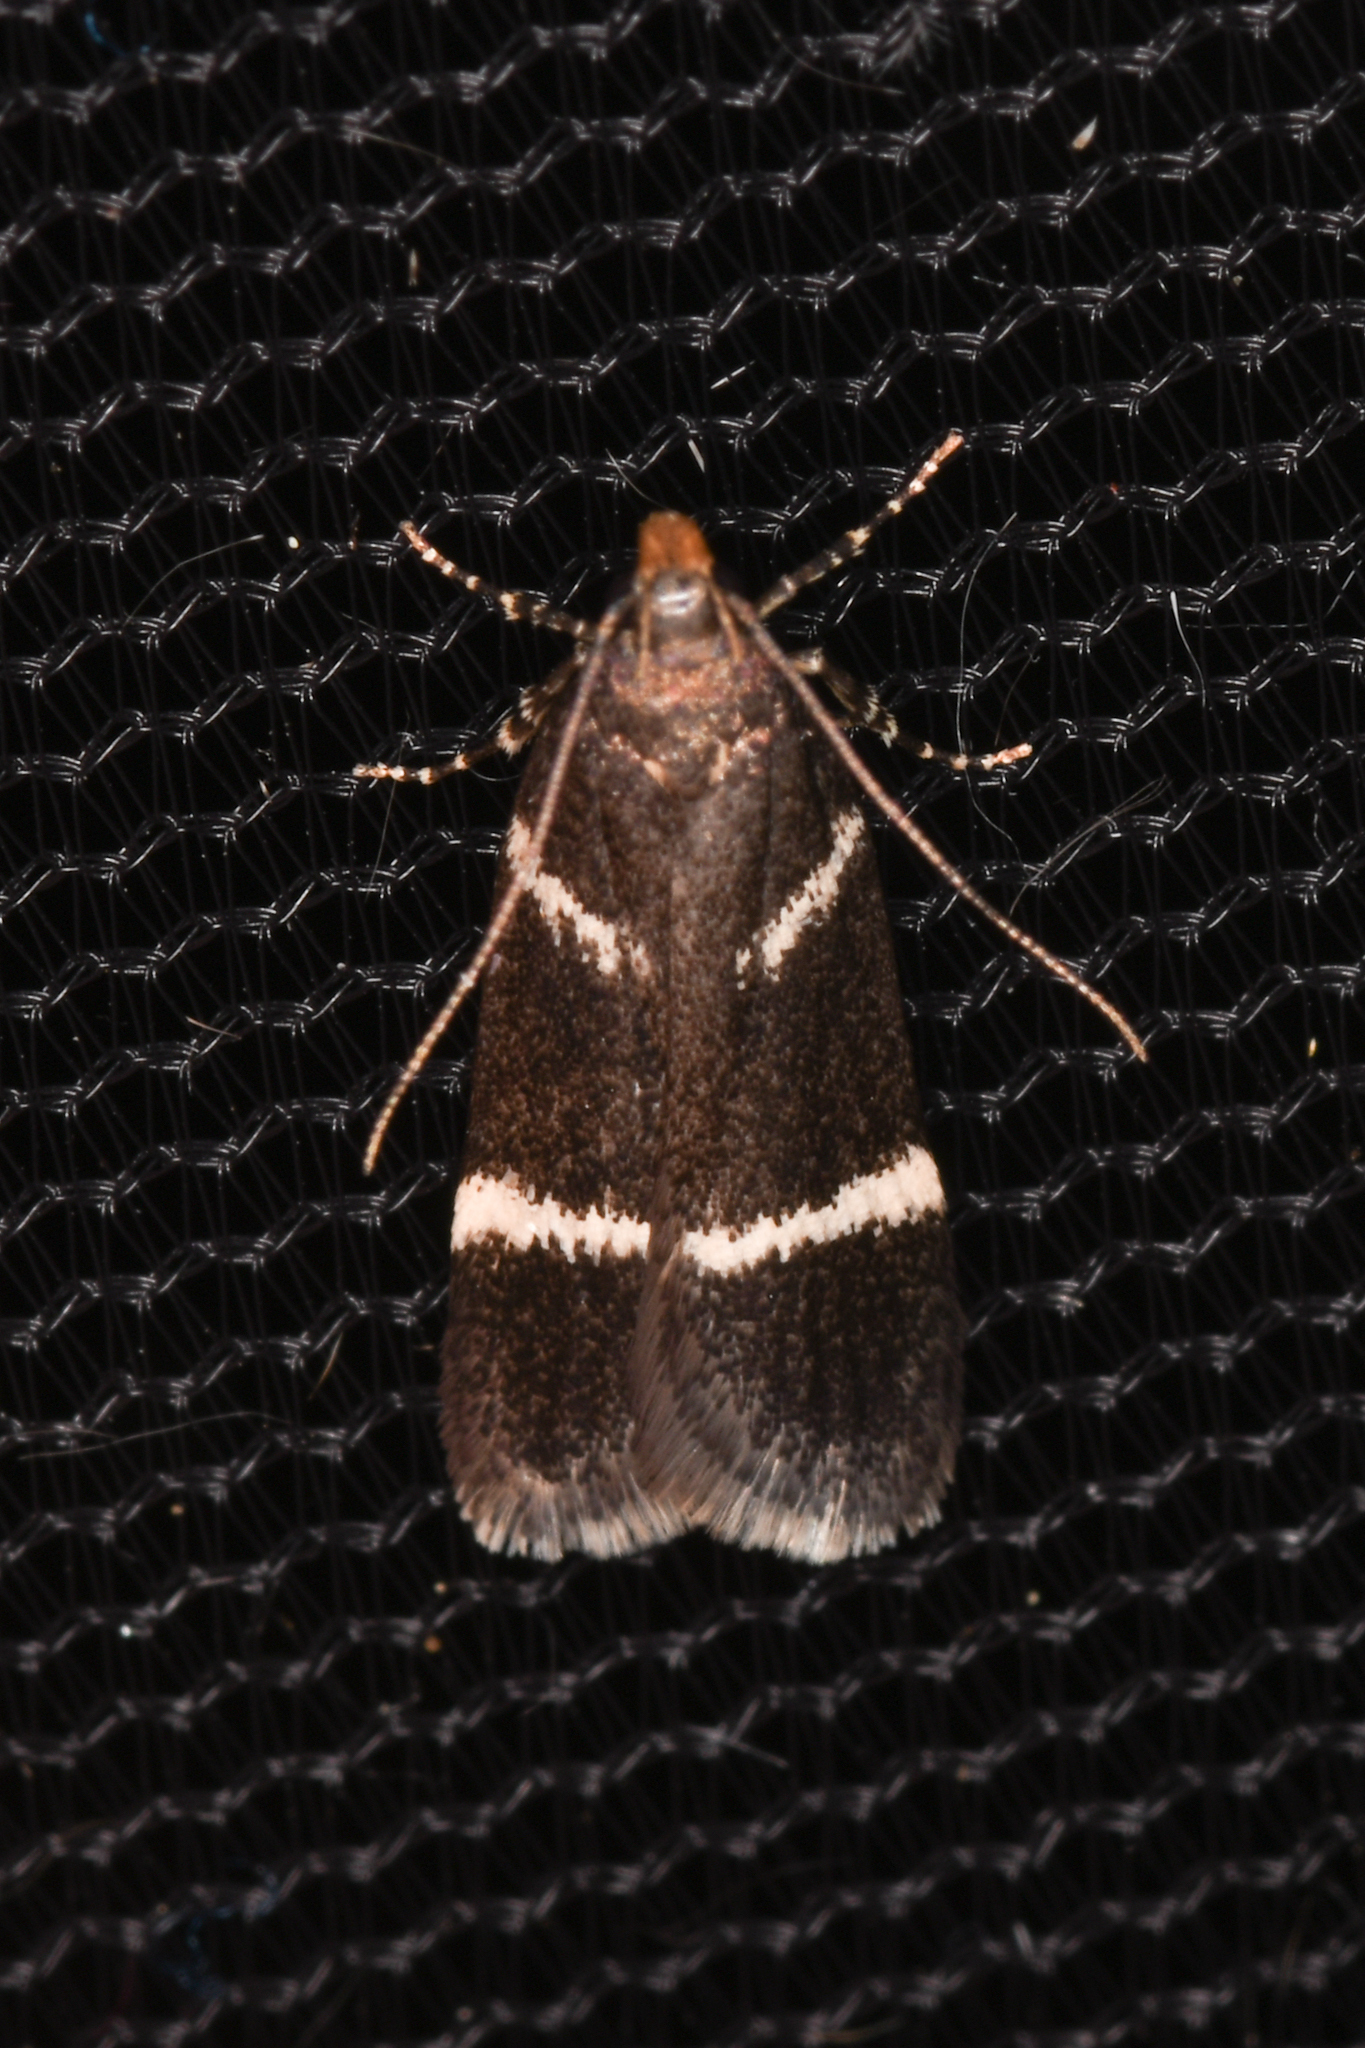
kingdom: Animalia
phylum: Arthropoda
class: Insecta
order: Lepidoptera
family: Gelechiidae
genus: Chionodes
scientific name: Chionodes lugubrella
